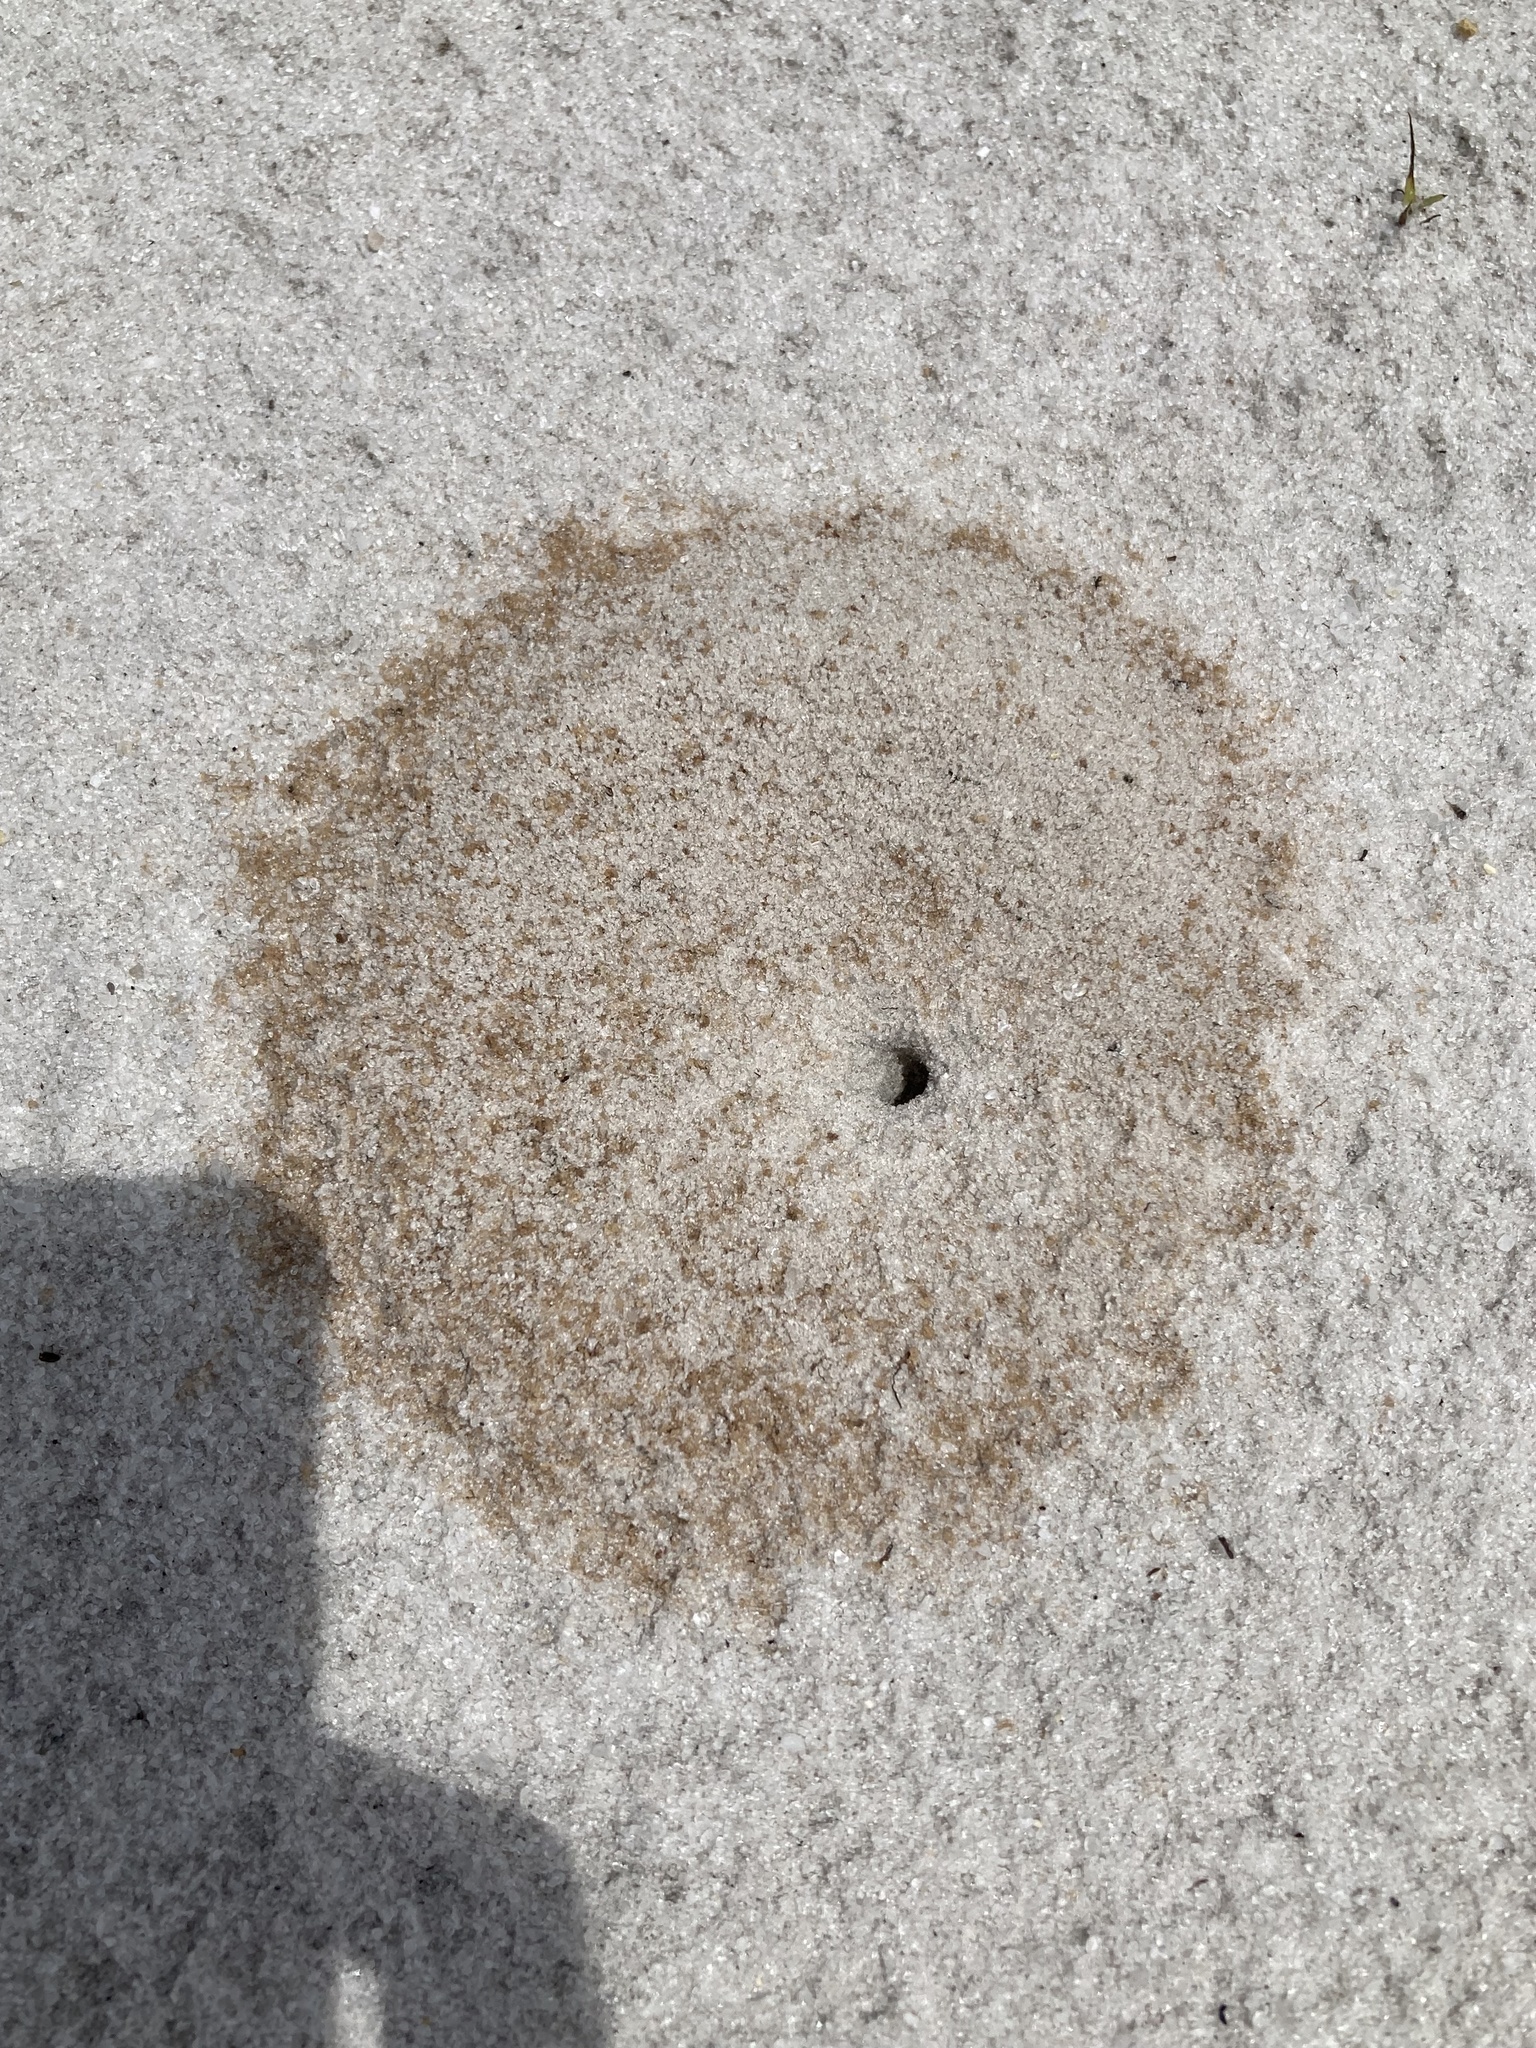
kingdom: Animalia
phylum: Arthropoda
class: Insecta
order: Hymenoptera
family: Formicidae
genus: Dorymyrmex
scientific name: Dorymyrmex bureni
